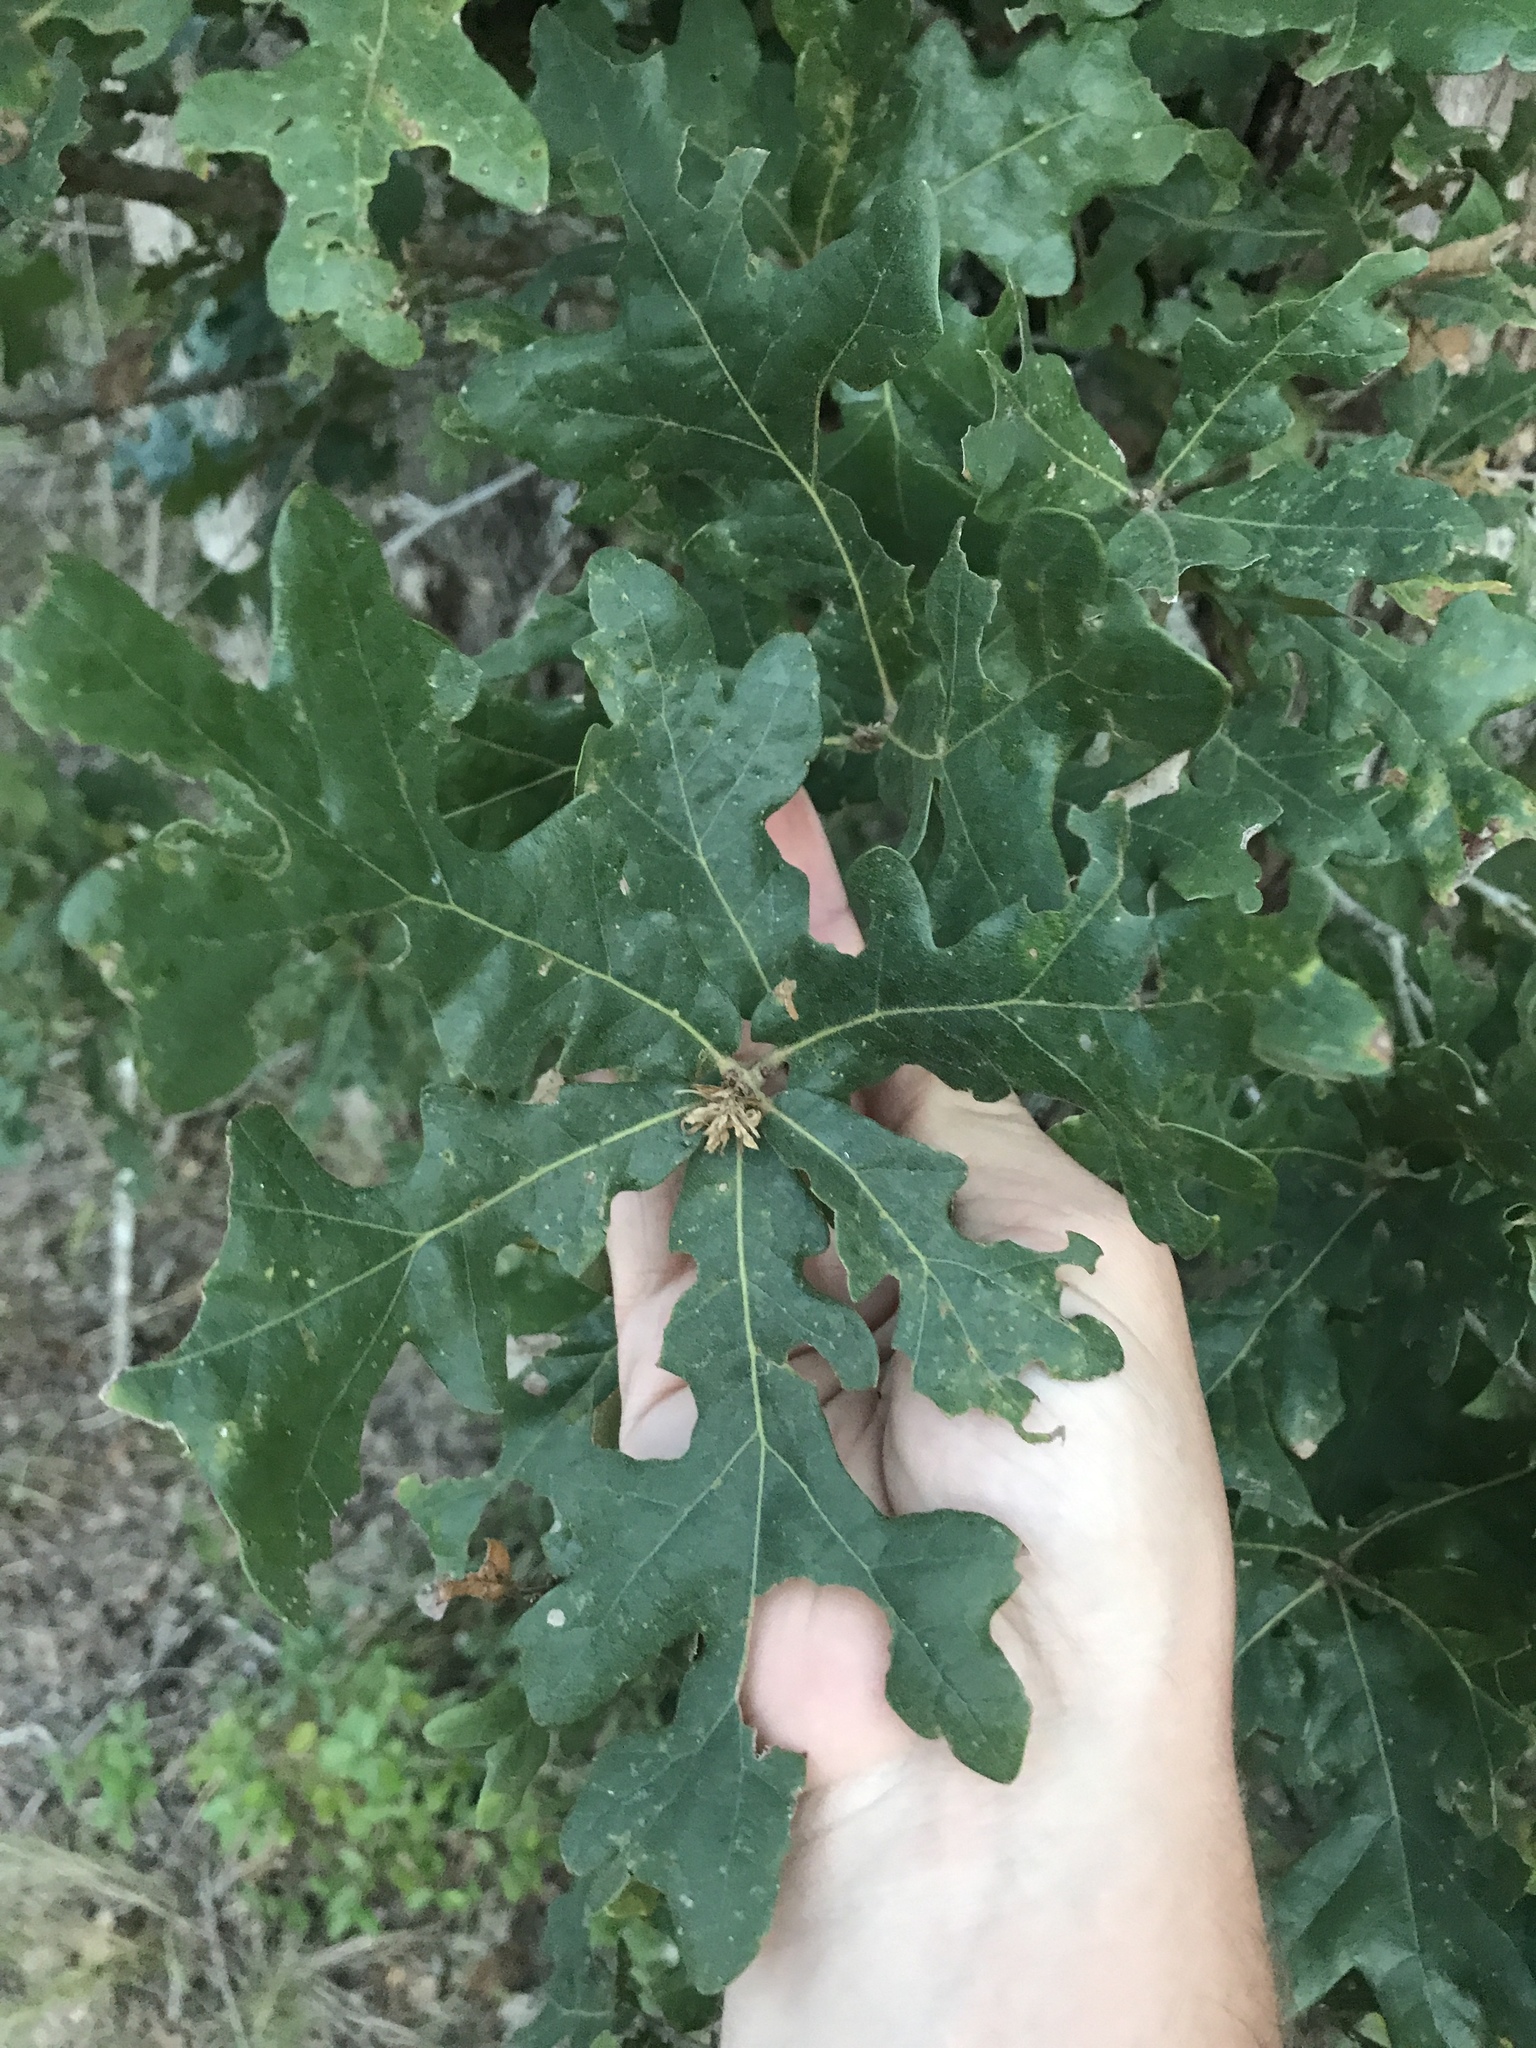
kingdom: Plantae
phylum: Tracheophyta
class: Magnoliopsida
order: Fagales
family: Fagaceae
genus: Quercus
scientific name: Quercus stellata
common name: Post oak
